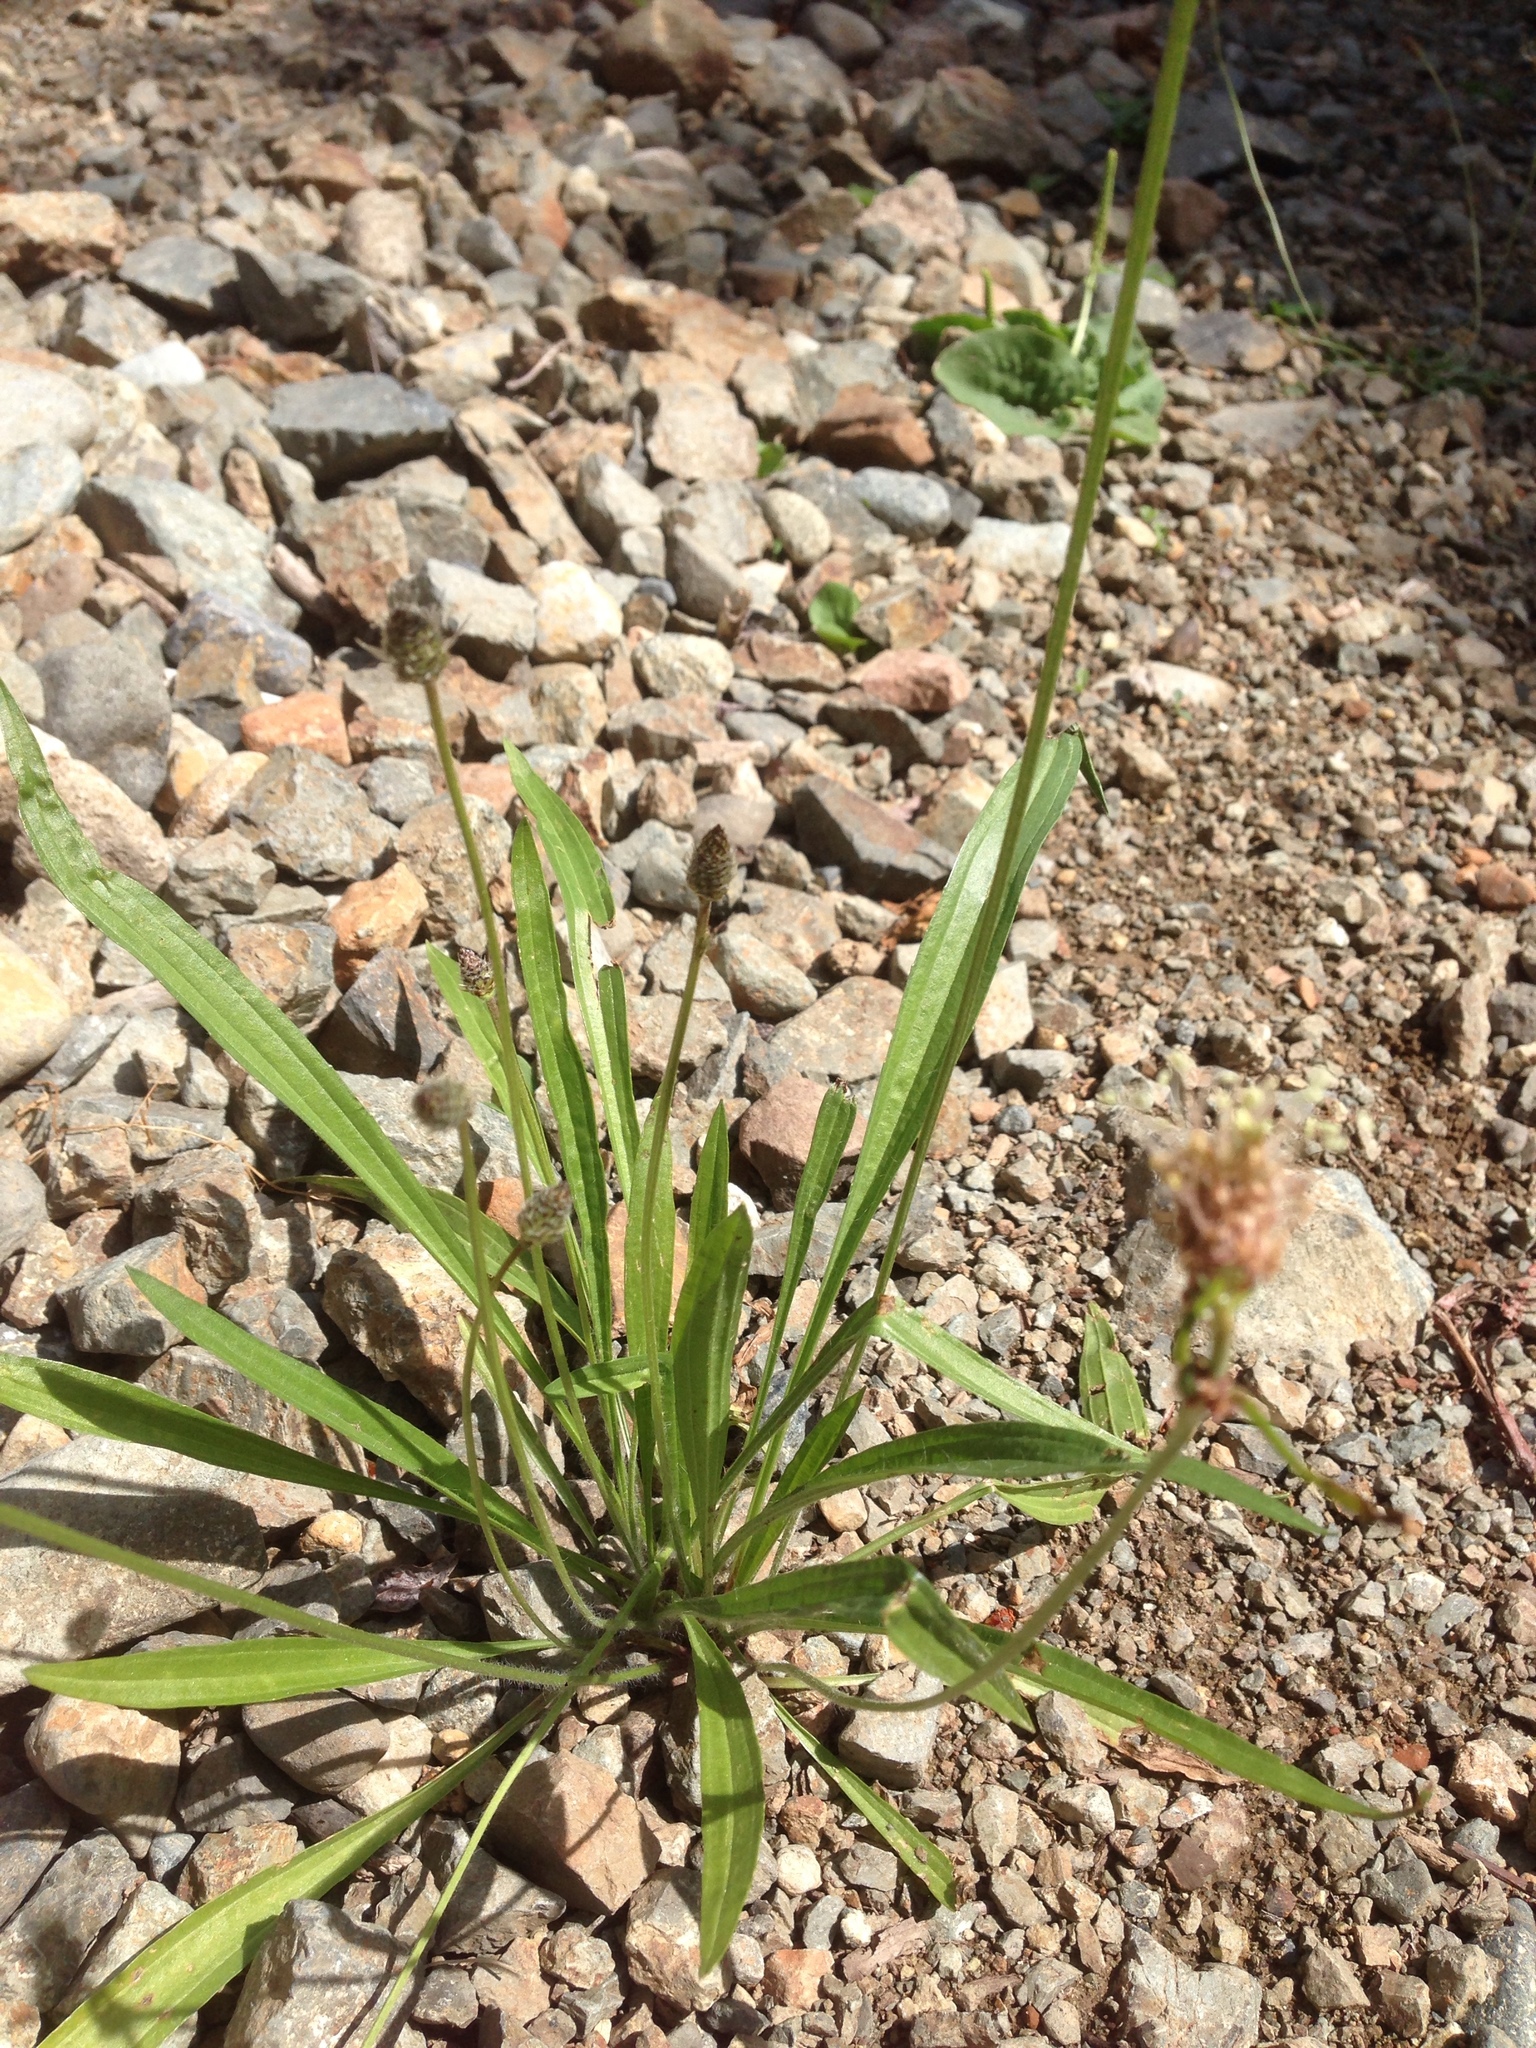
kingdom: Plantae
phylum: Tracheophyta
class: Magnoliopsida
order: Lamiales
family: Plantaginaceae
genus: Plantago
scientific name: Plantago lanceolata
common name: Ribwort plantain
